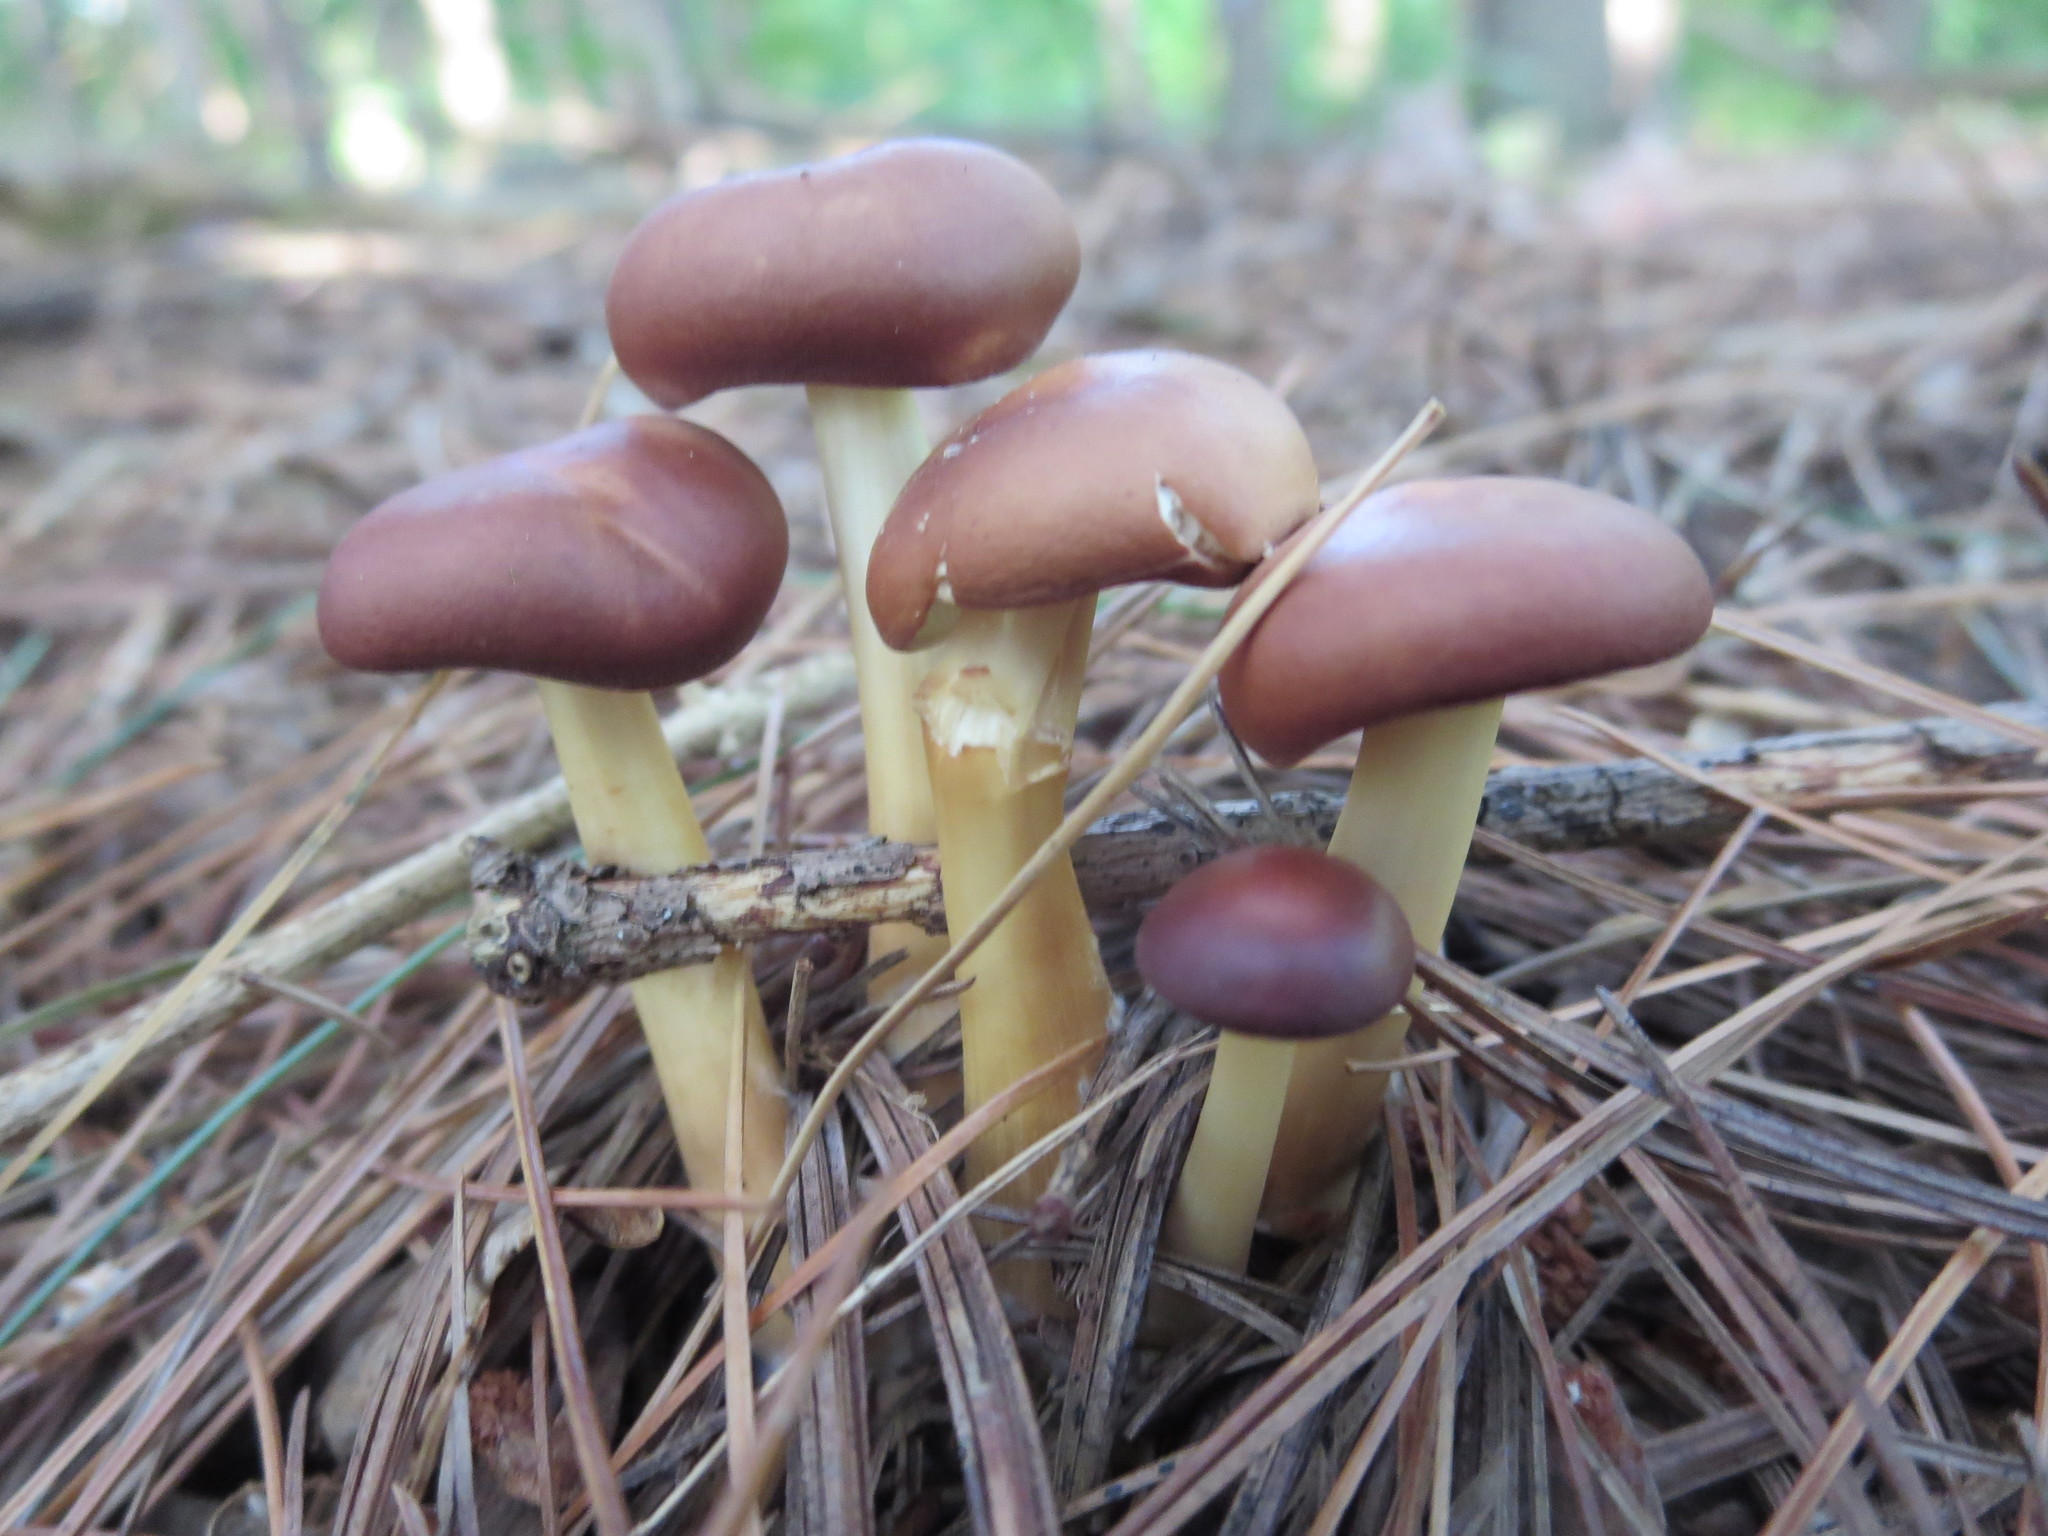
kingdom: Fungi
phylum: Basidiomycota
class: Agaricomycetes
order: Agaricales
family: Omphalotaceae
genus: Gymnopus
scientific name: Gymnopus dryophilus
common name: Penny top
